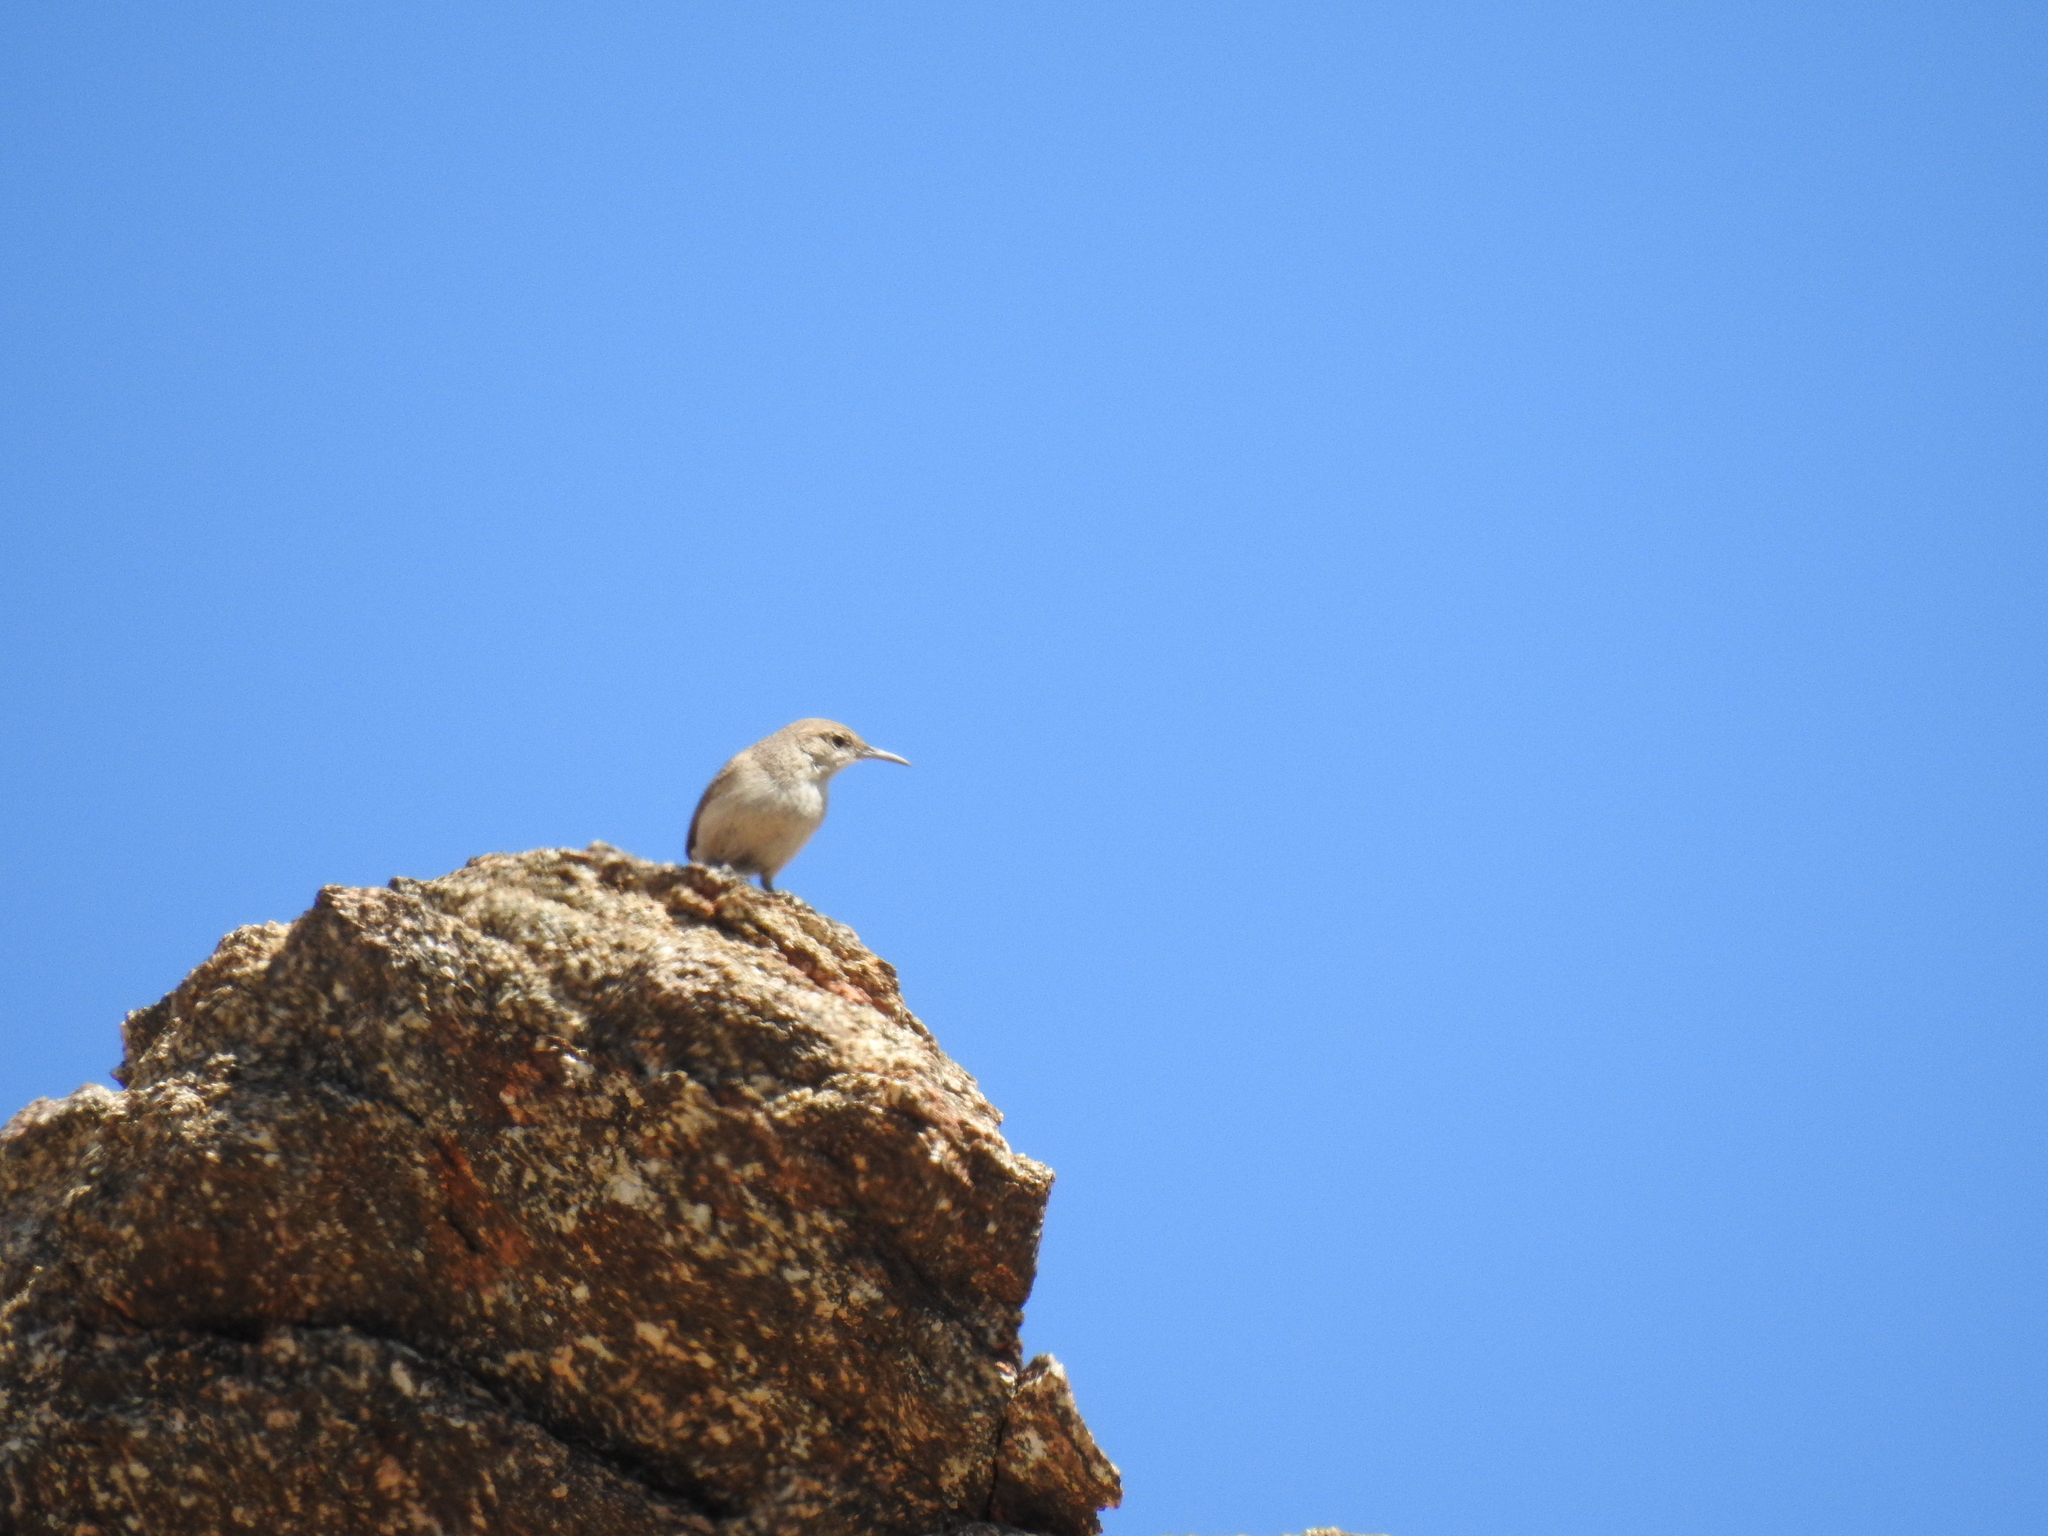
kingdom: Animalia
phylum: Chordata
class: Aves
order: Passeriformes
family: Troglodytidae
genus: Salpinctes
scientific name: Salpinctes obsoletus
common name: Rock wren
